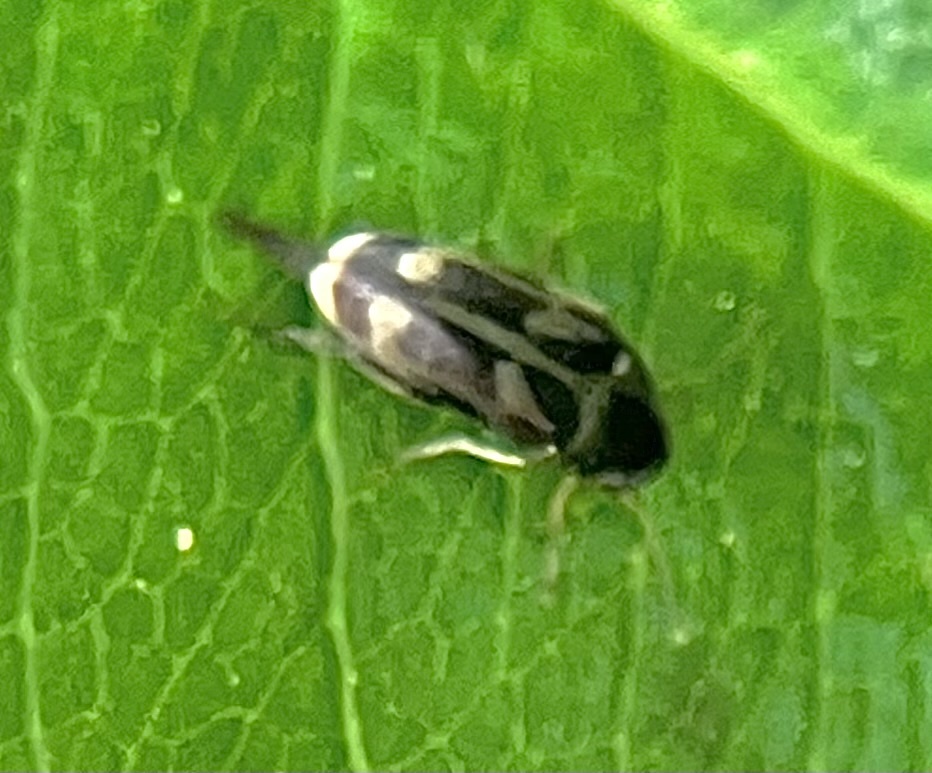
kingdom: Animalia
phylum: Arthropoda
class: Insecta
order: Coleoptera
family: Mordellidae
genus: Falsomordellistena
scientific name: Falsomordellistena hebraica
